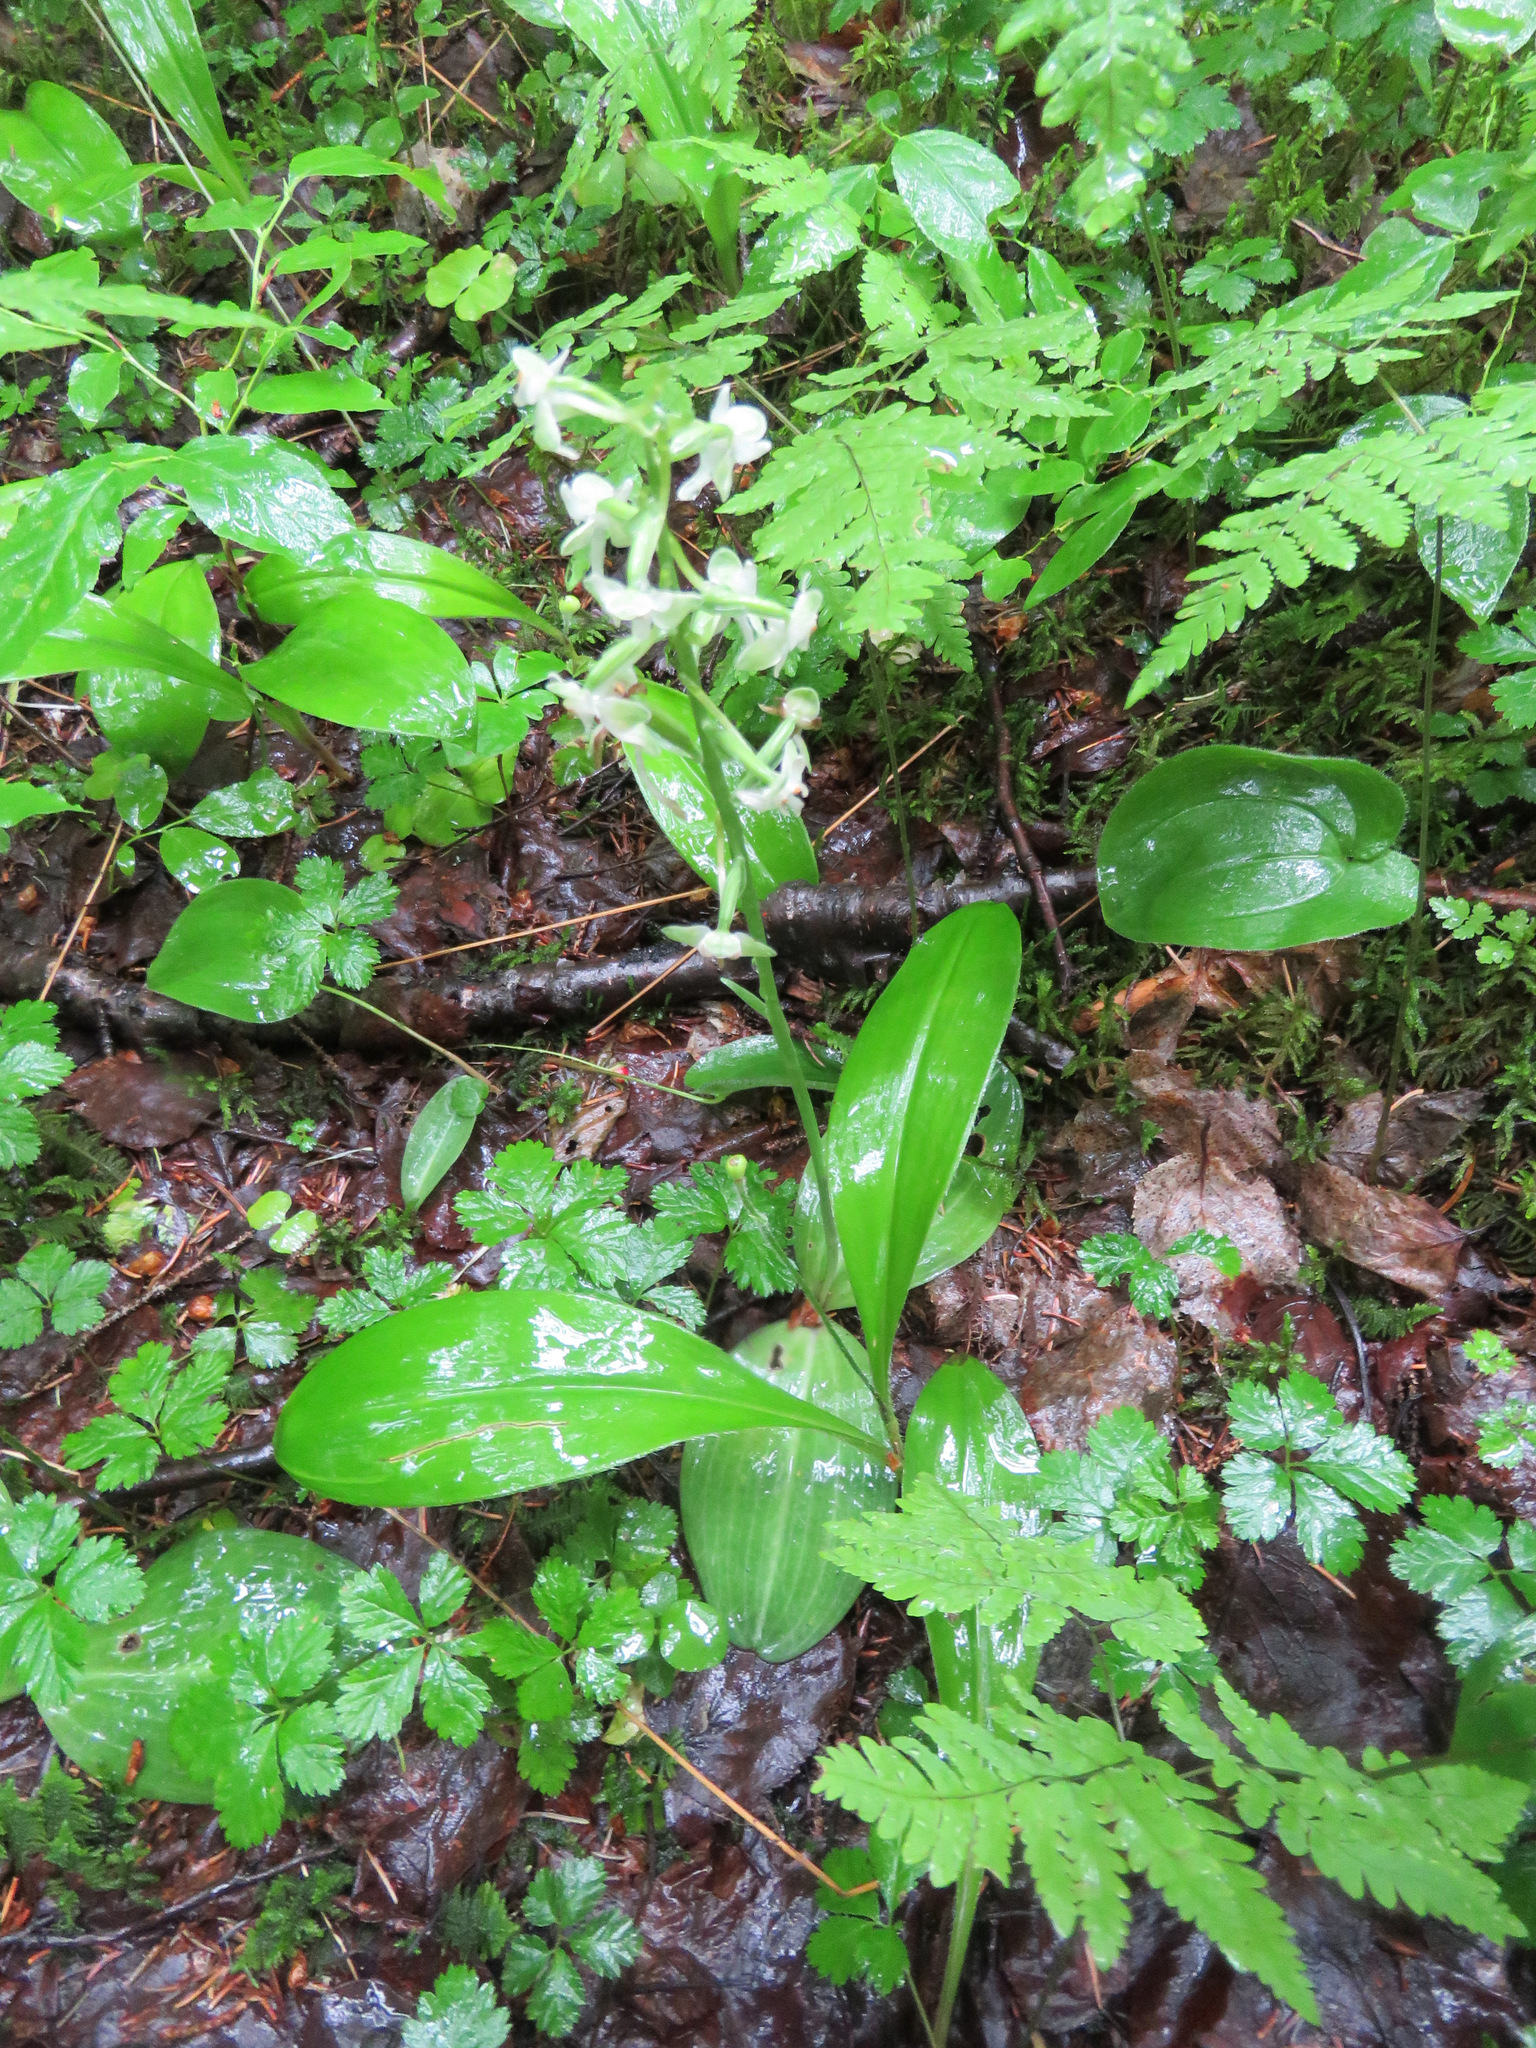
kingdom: Plantae
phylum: Tracheophyta
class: Liliopsida
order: Asparagales
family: Orchidaceae
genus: Platanthera
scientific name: Platanthera orbiculata
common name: Large round-leaved orchid
